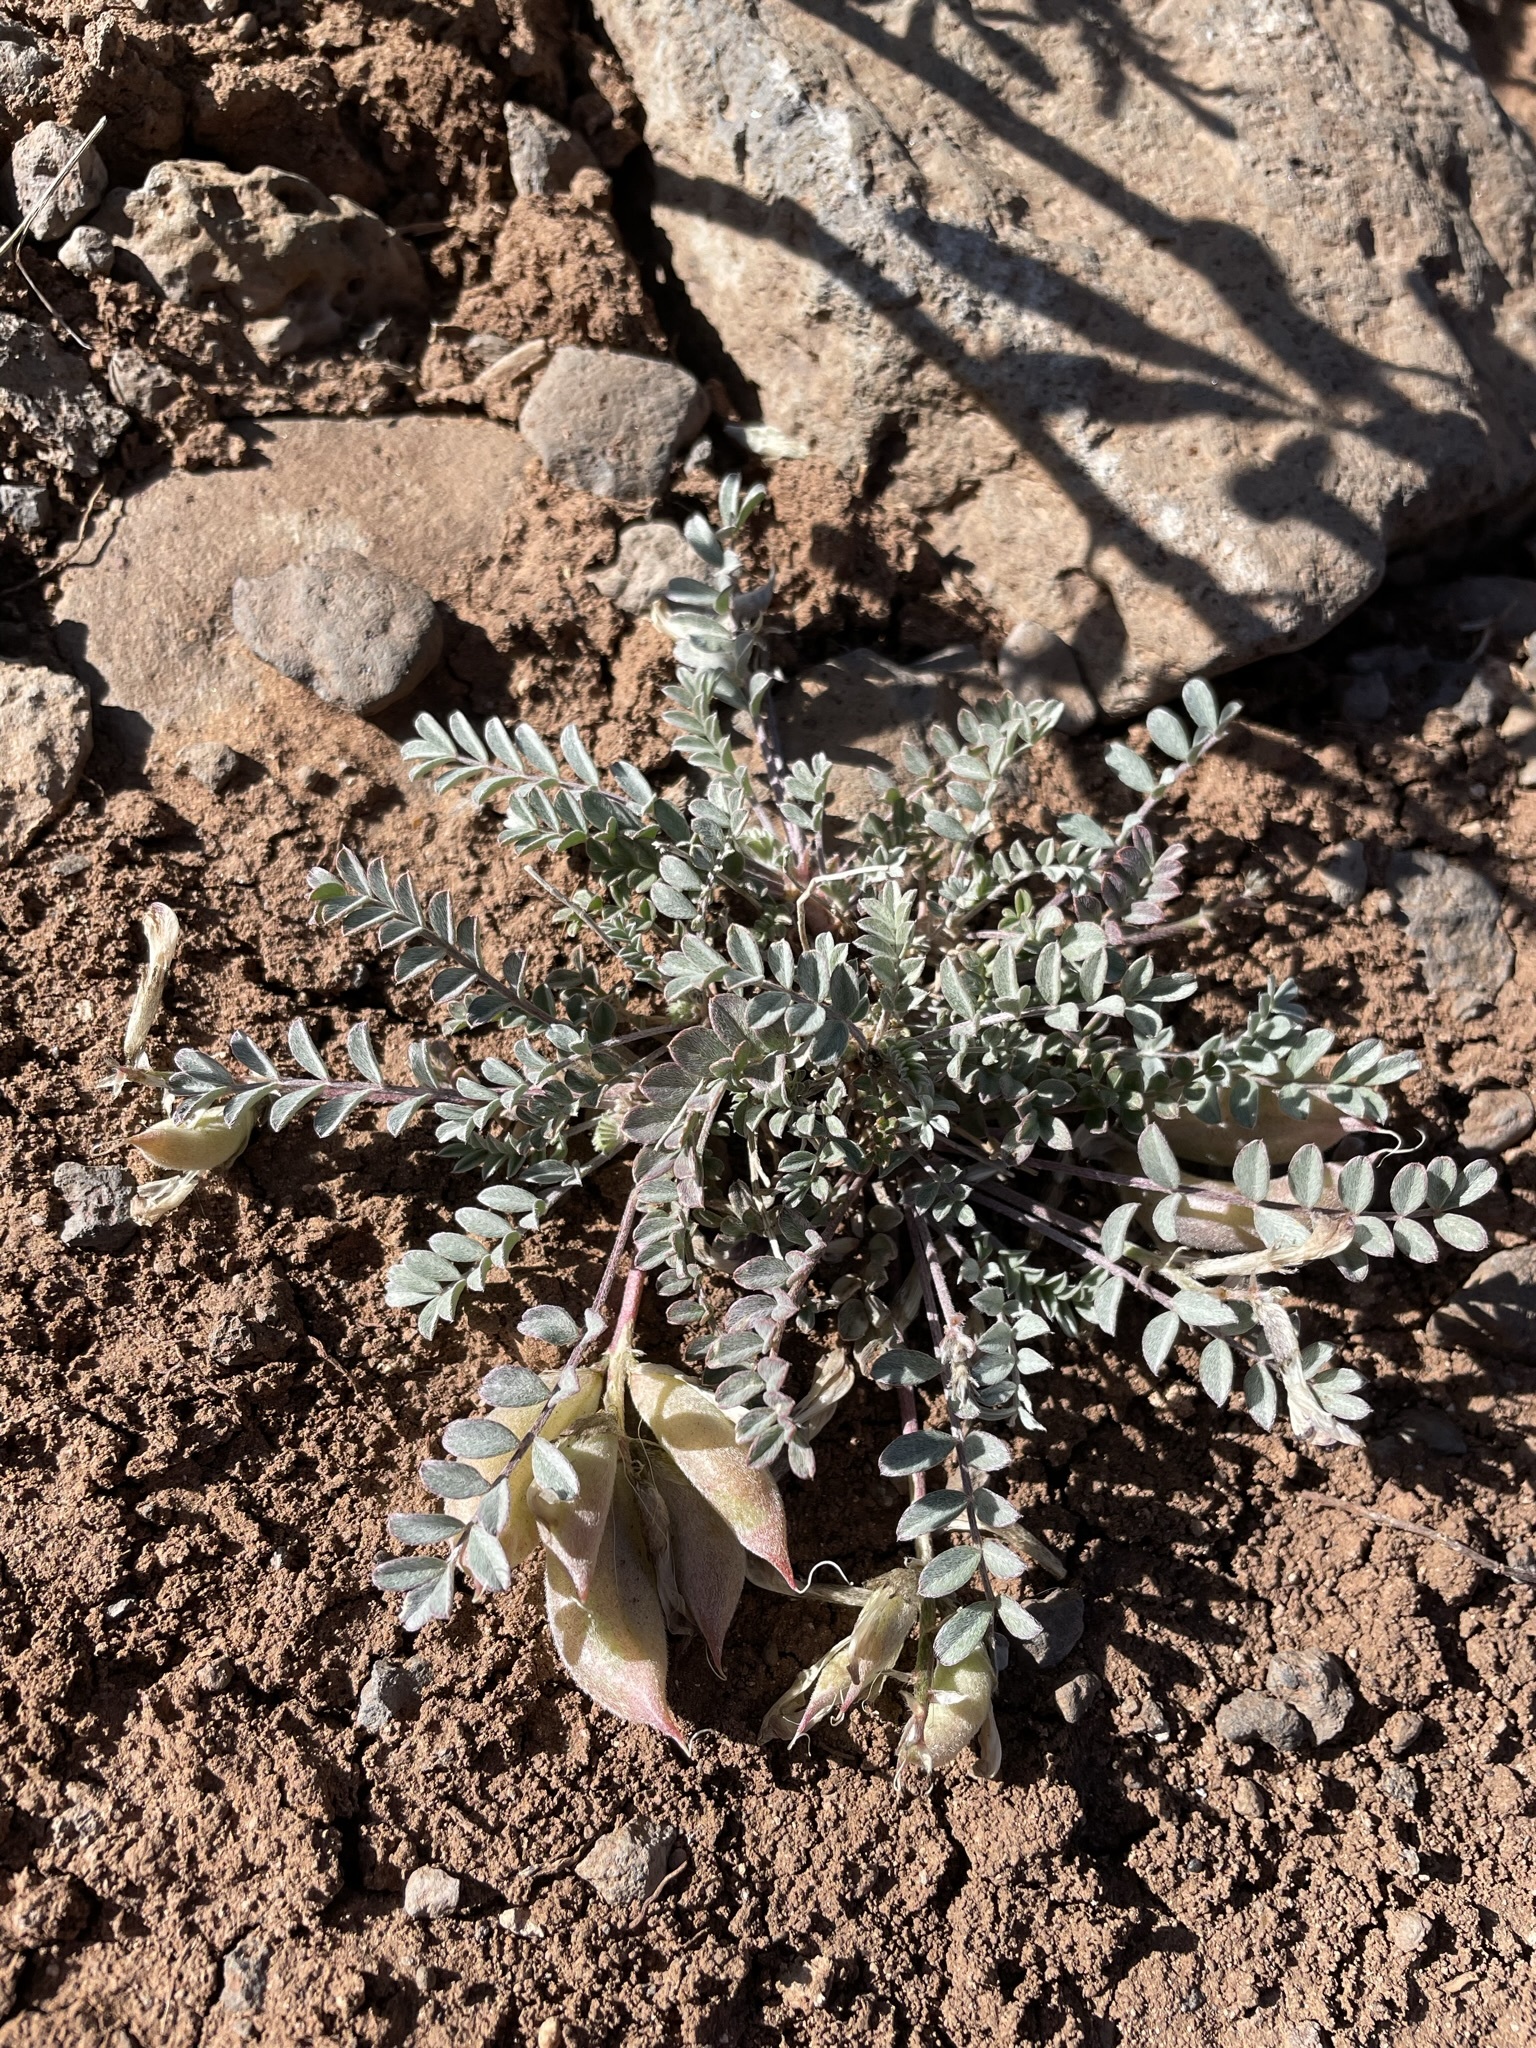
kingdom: Plantae
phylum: Tracheophyta
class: Magnoliopsida
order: Fabales
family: Fabaceae
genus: Astragalus
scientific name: Astragalus argophyllus
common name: Silverleaf milk-vetch
